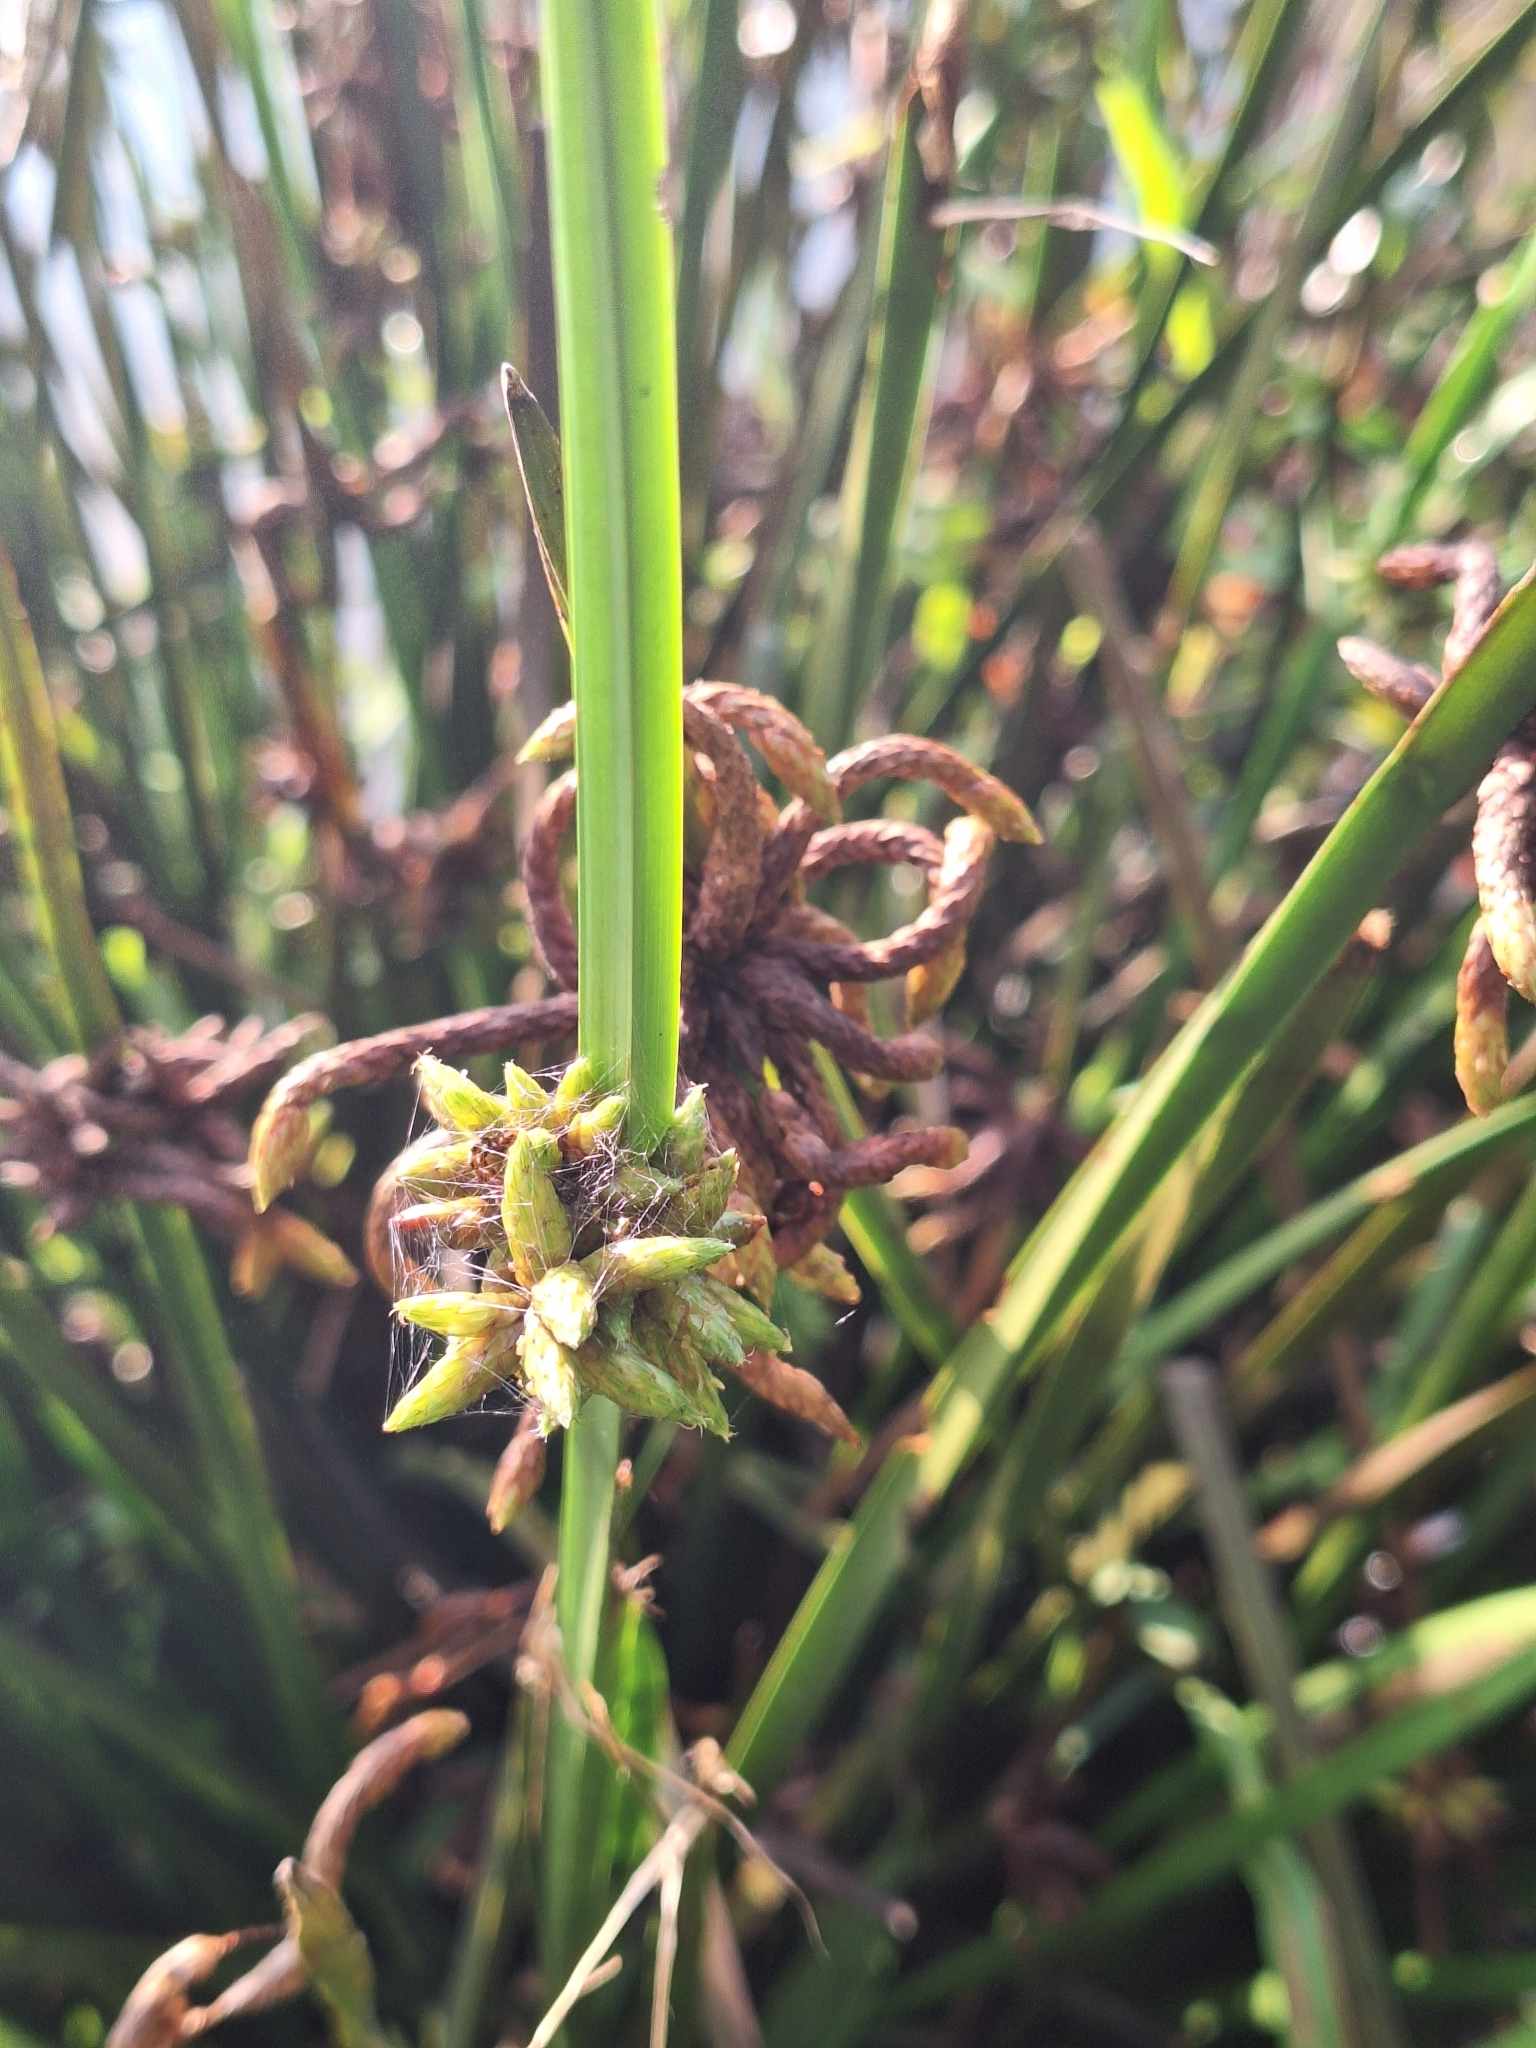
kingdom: Plantae
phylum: Tracheophyta
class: Liliopsida
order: Poales
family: Cyperaceae
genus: Schoenoplectiella
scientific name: Schoenoplectiella mucronata
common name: Bog bulrush
